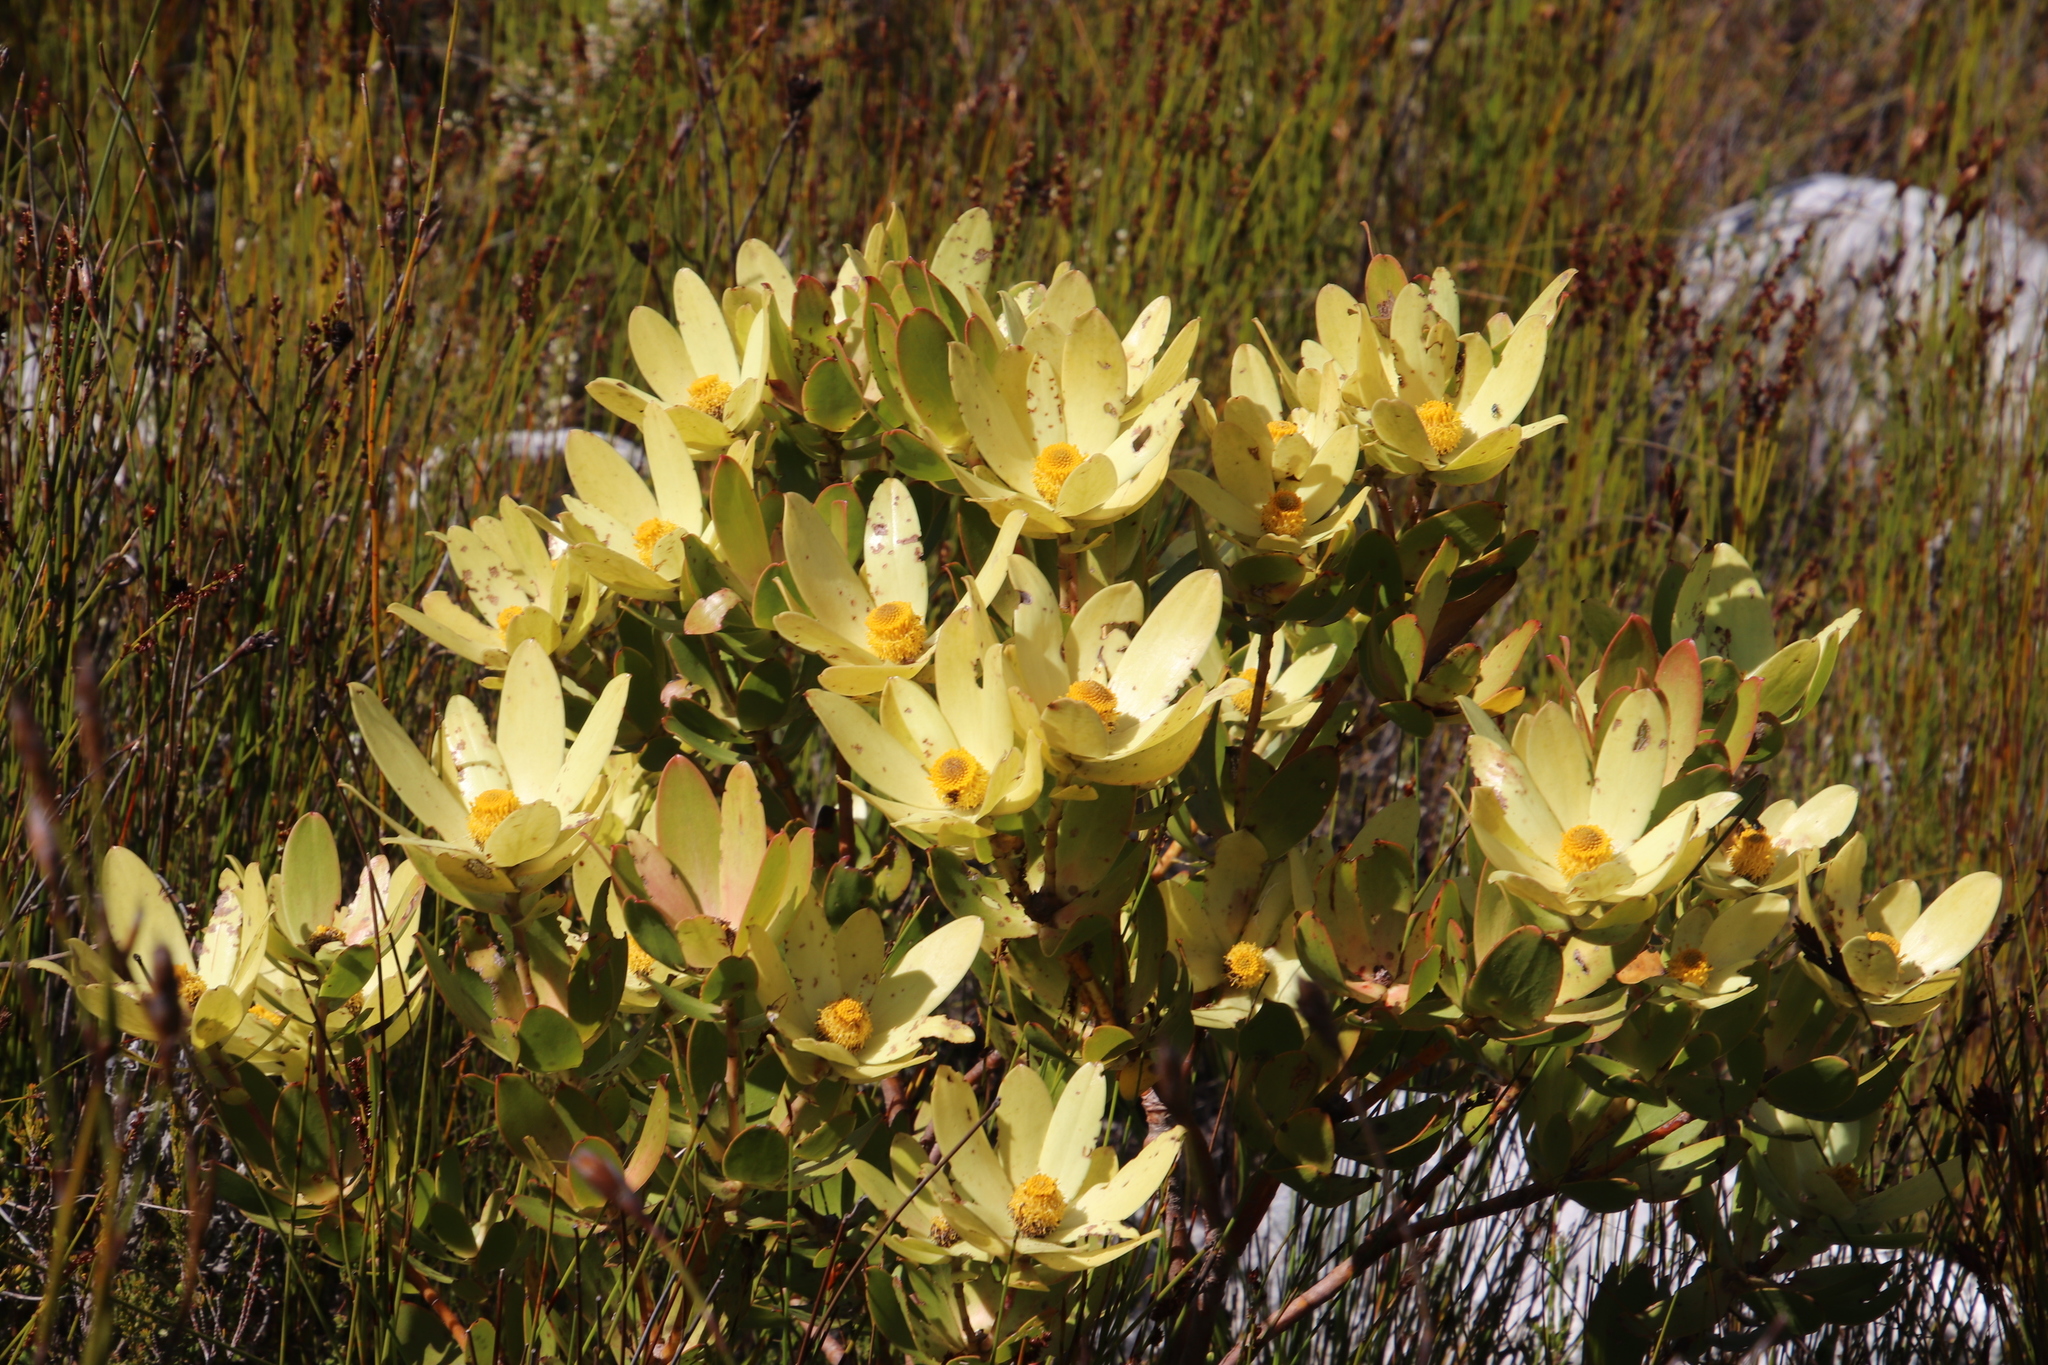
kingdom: Plantae
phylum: Tracheophyta
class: Magnoliopsida
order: Proteales
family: Proteaceae
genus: Leucadendron
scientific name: Leucadendron gandogeri
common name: Broad-leaf conebush
